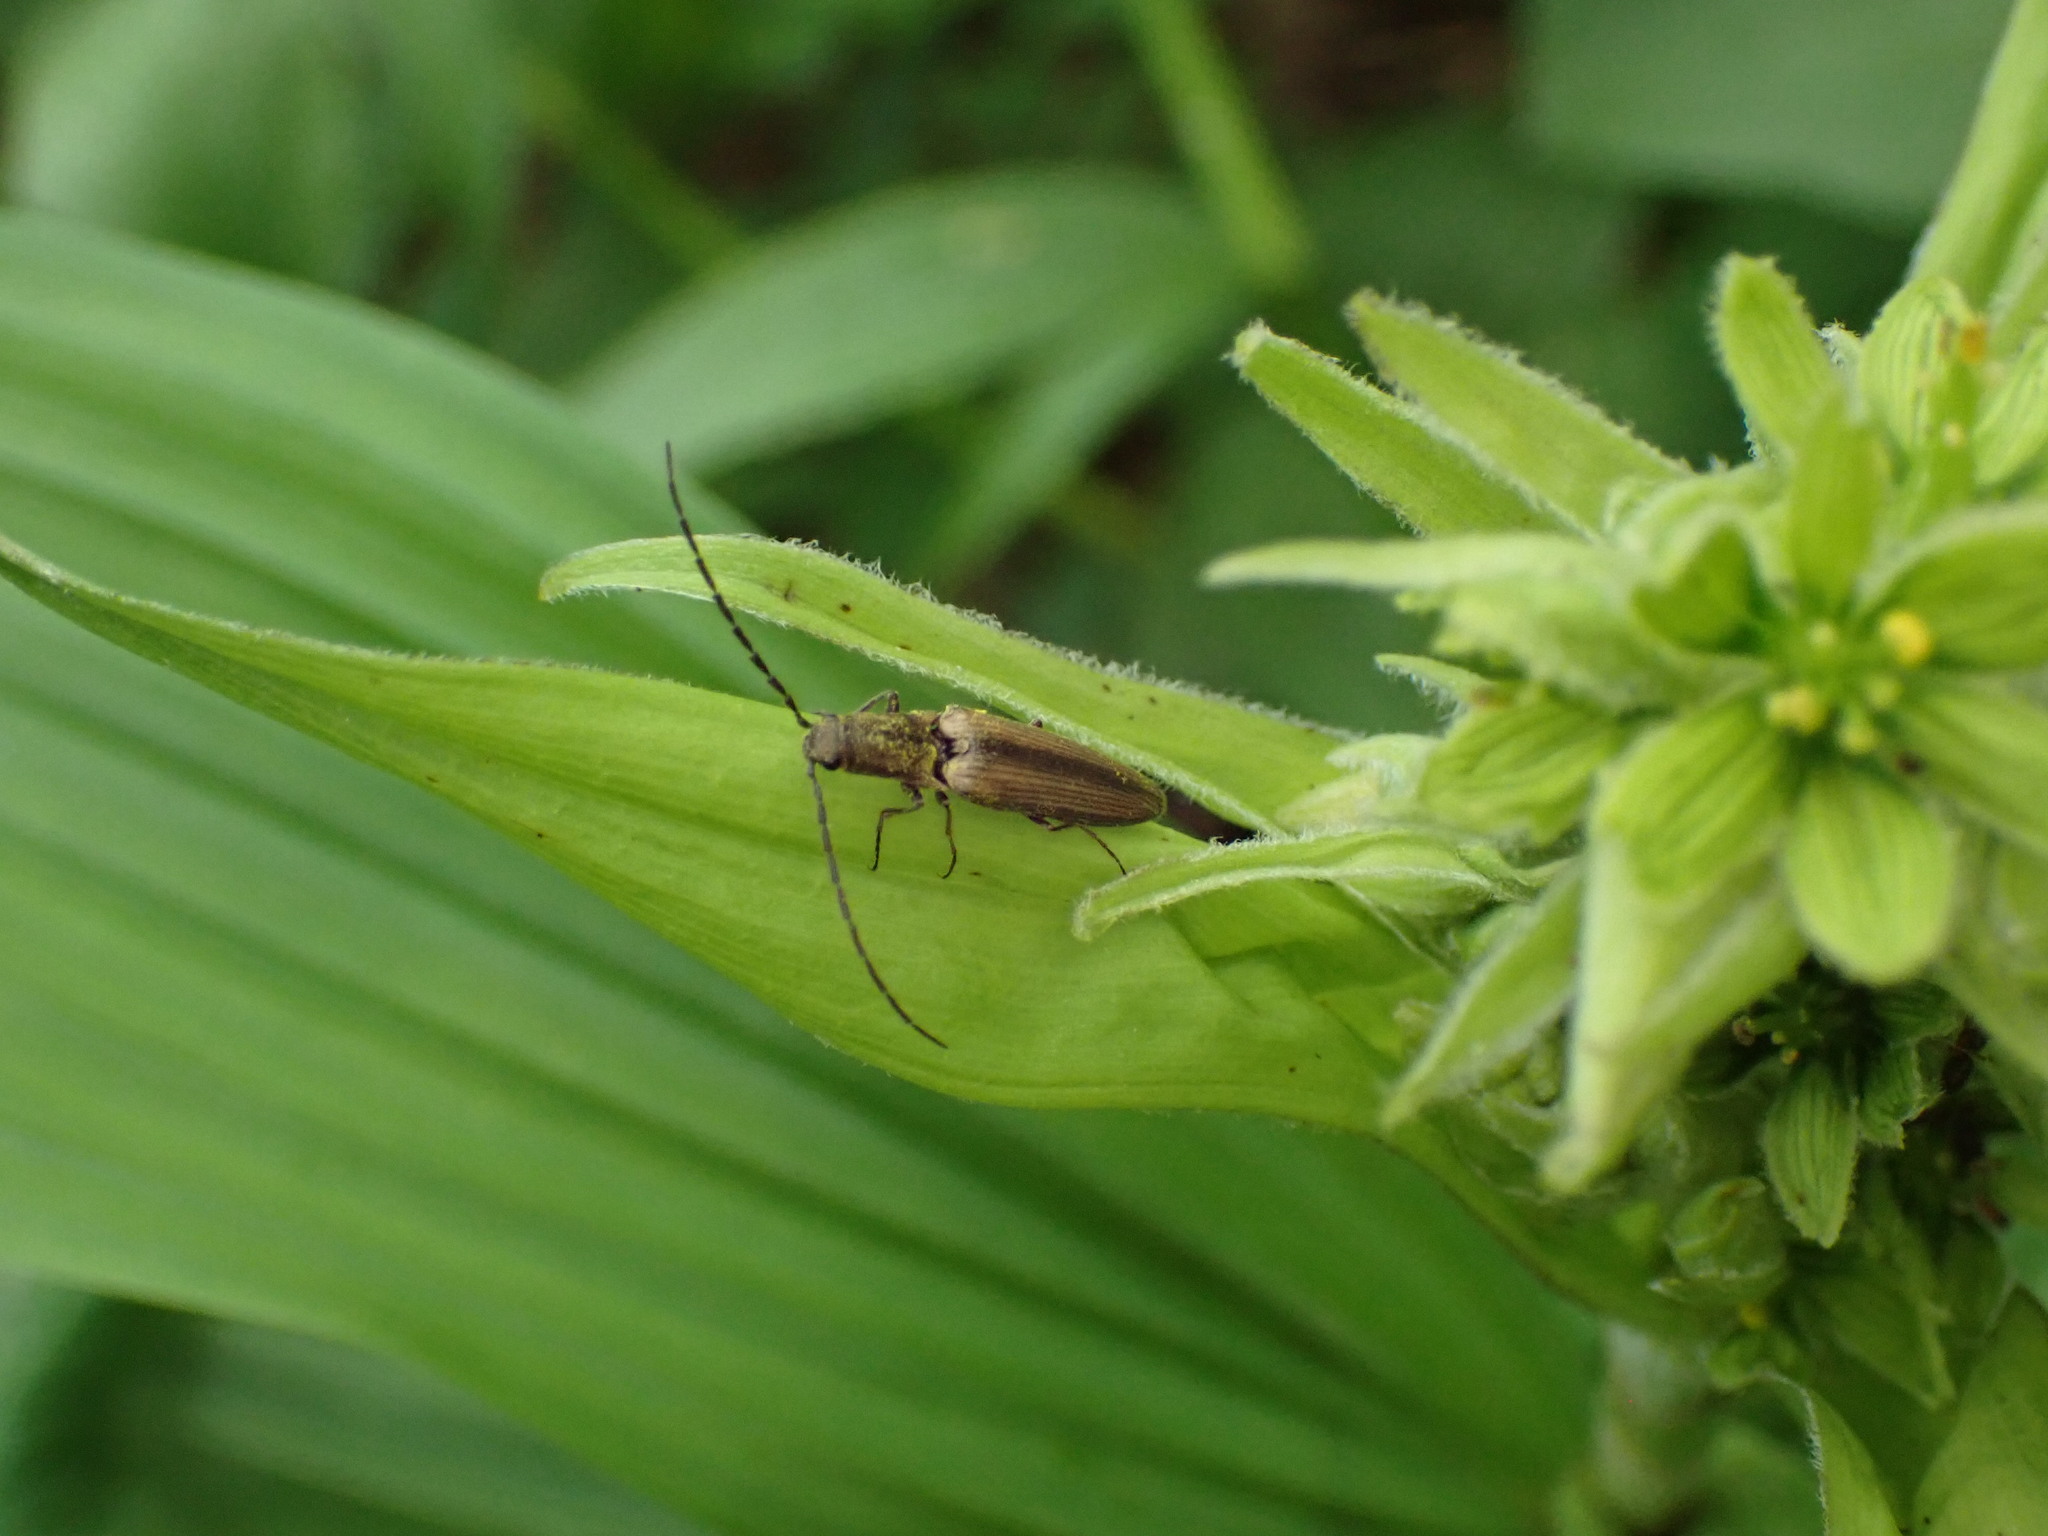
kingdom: Animalia
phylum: Arthropoda
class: Insecta
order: Coleoptera
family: Elateridae
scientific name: Elateridae
